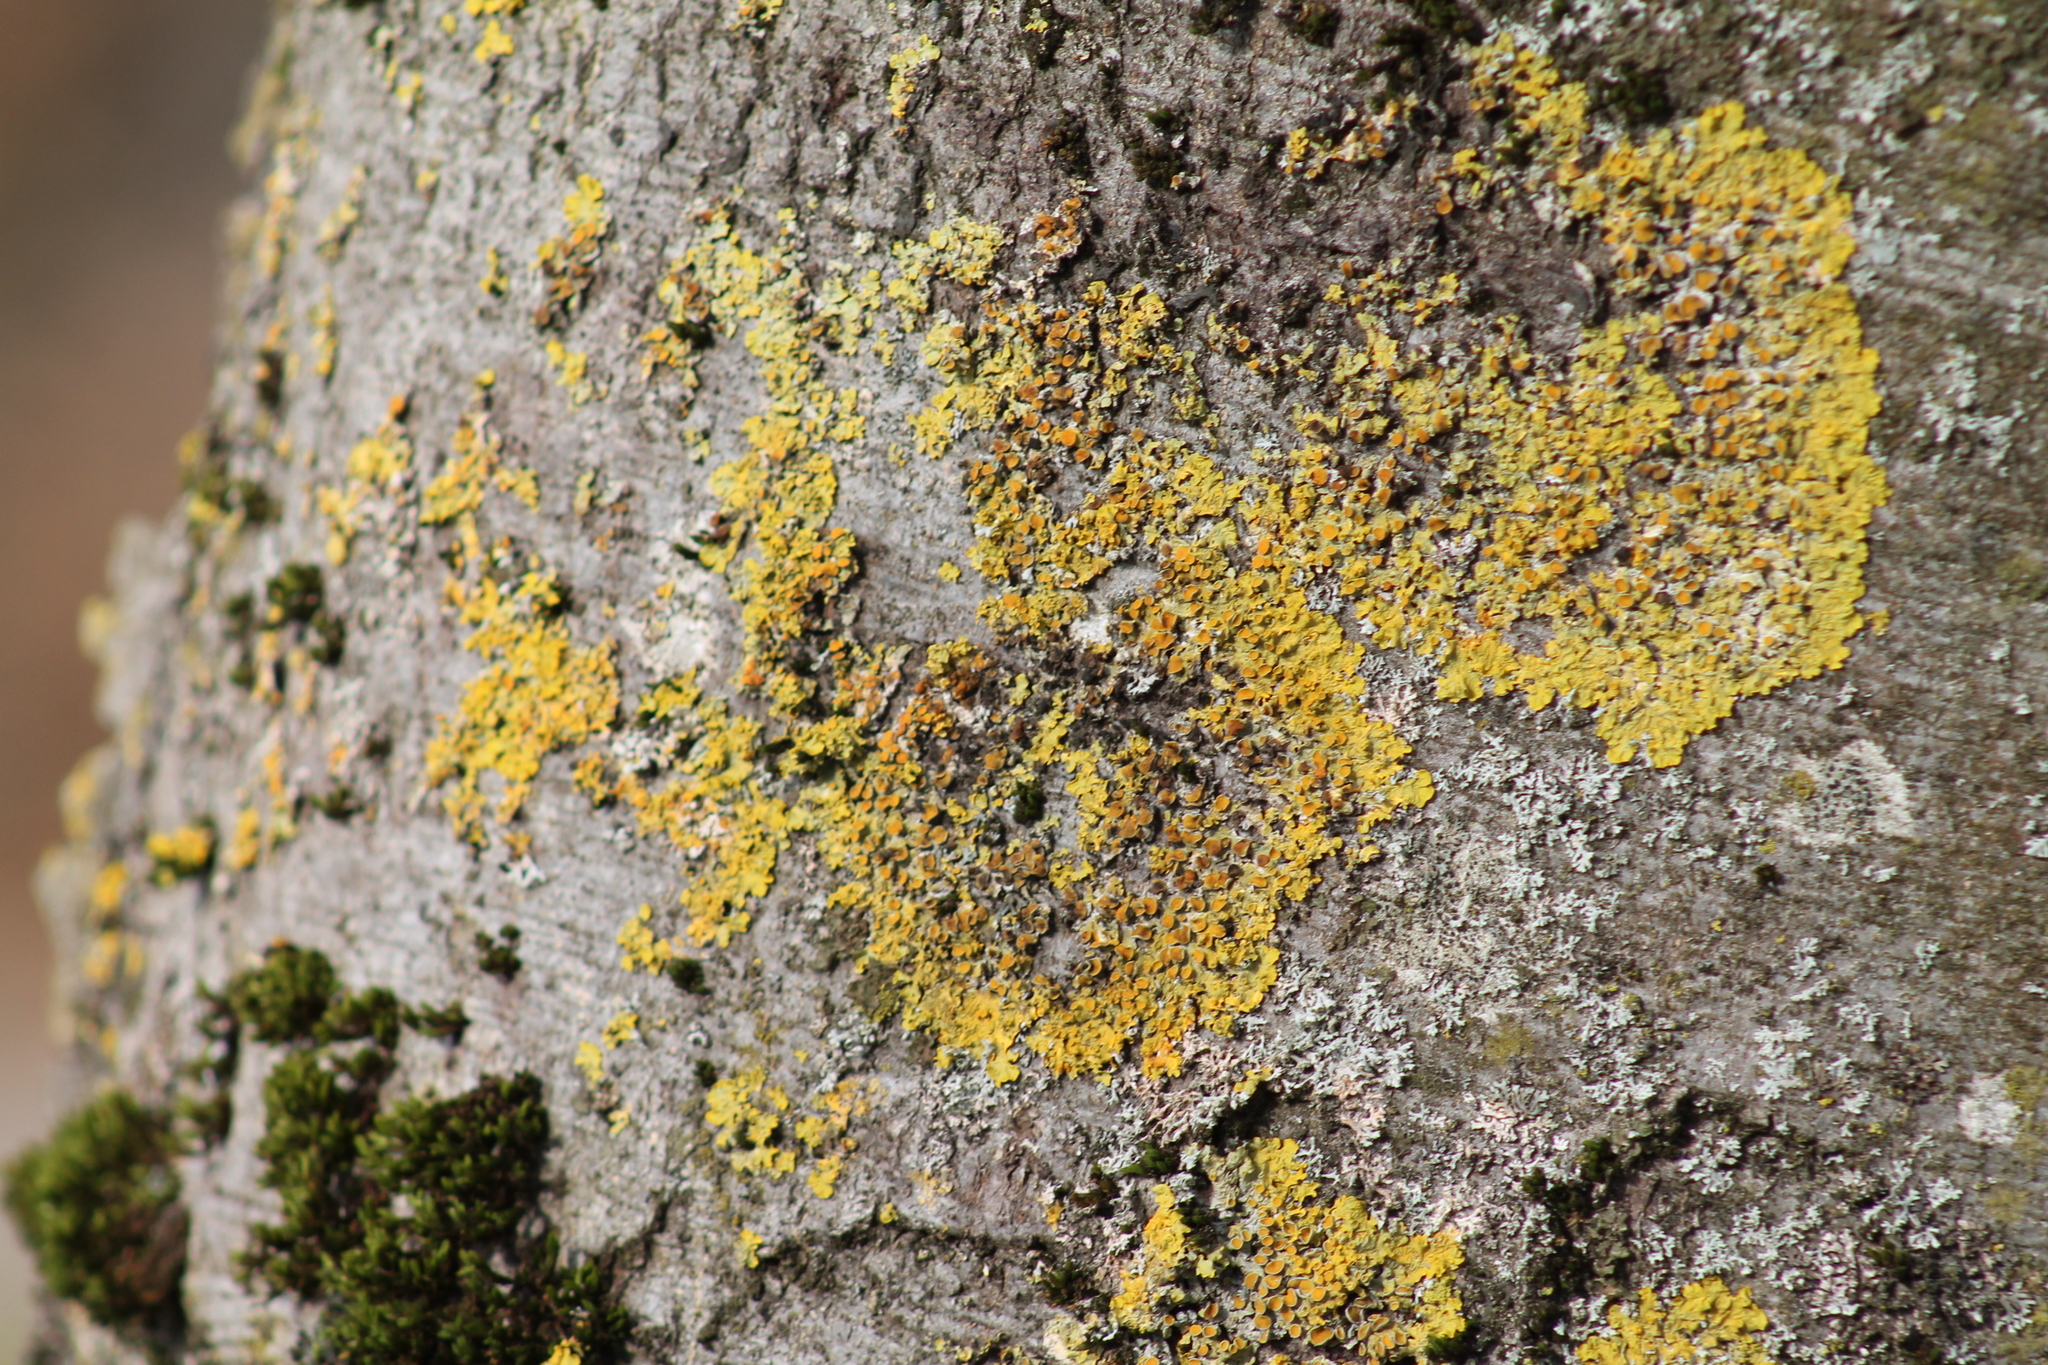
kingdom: Fungi
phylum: Ascomycota
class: Lecanoromycetes
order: Teloschistales
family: Teloschistaceae
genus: Xanthoria
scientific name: Xanthoria parietina
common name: Common orange lichen
